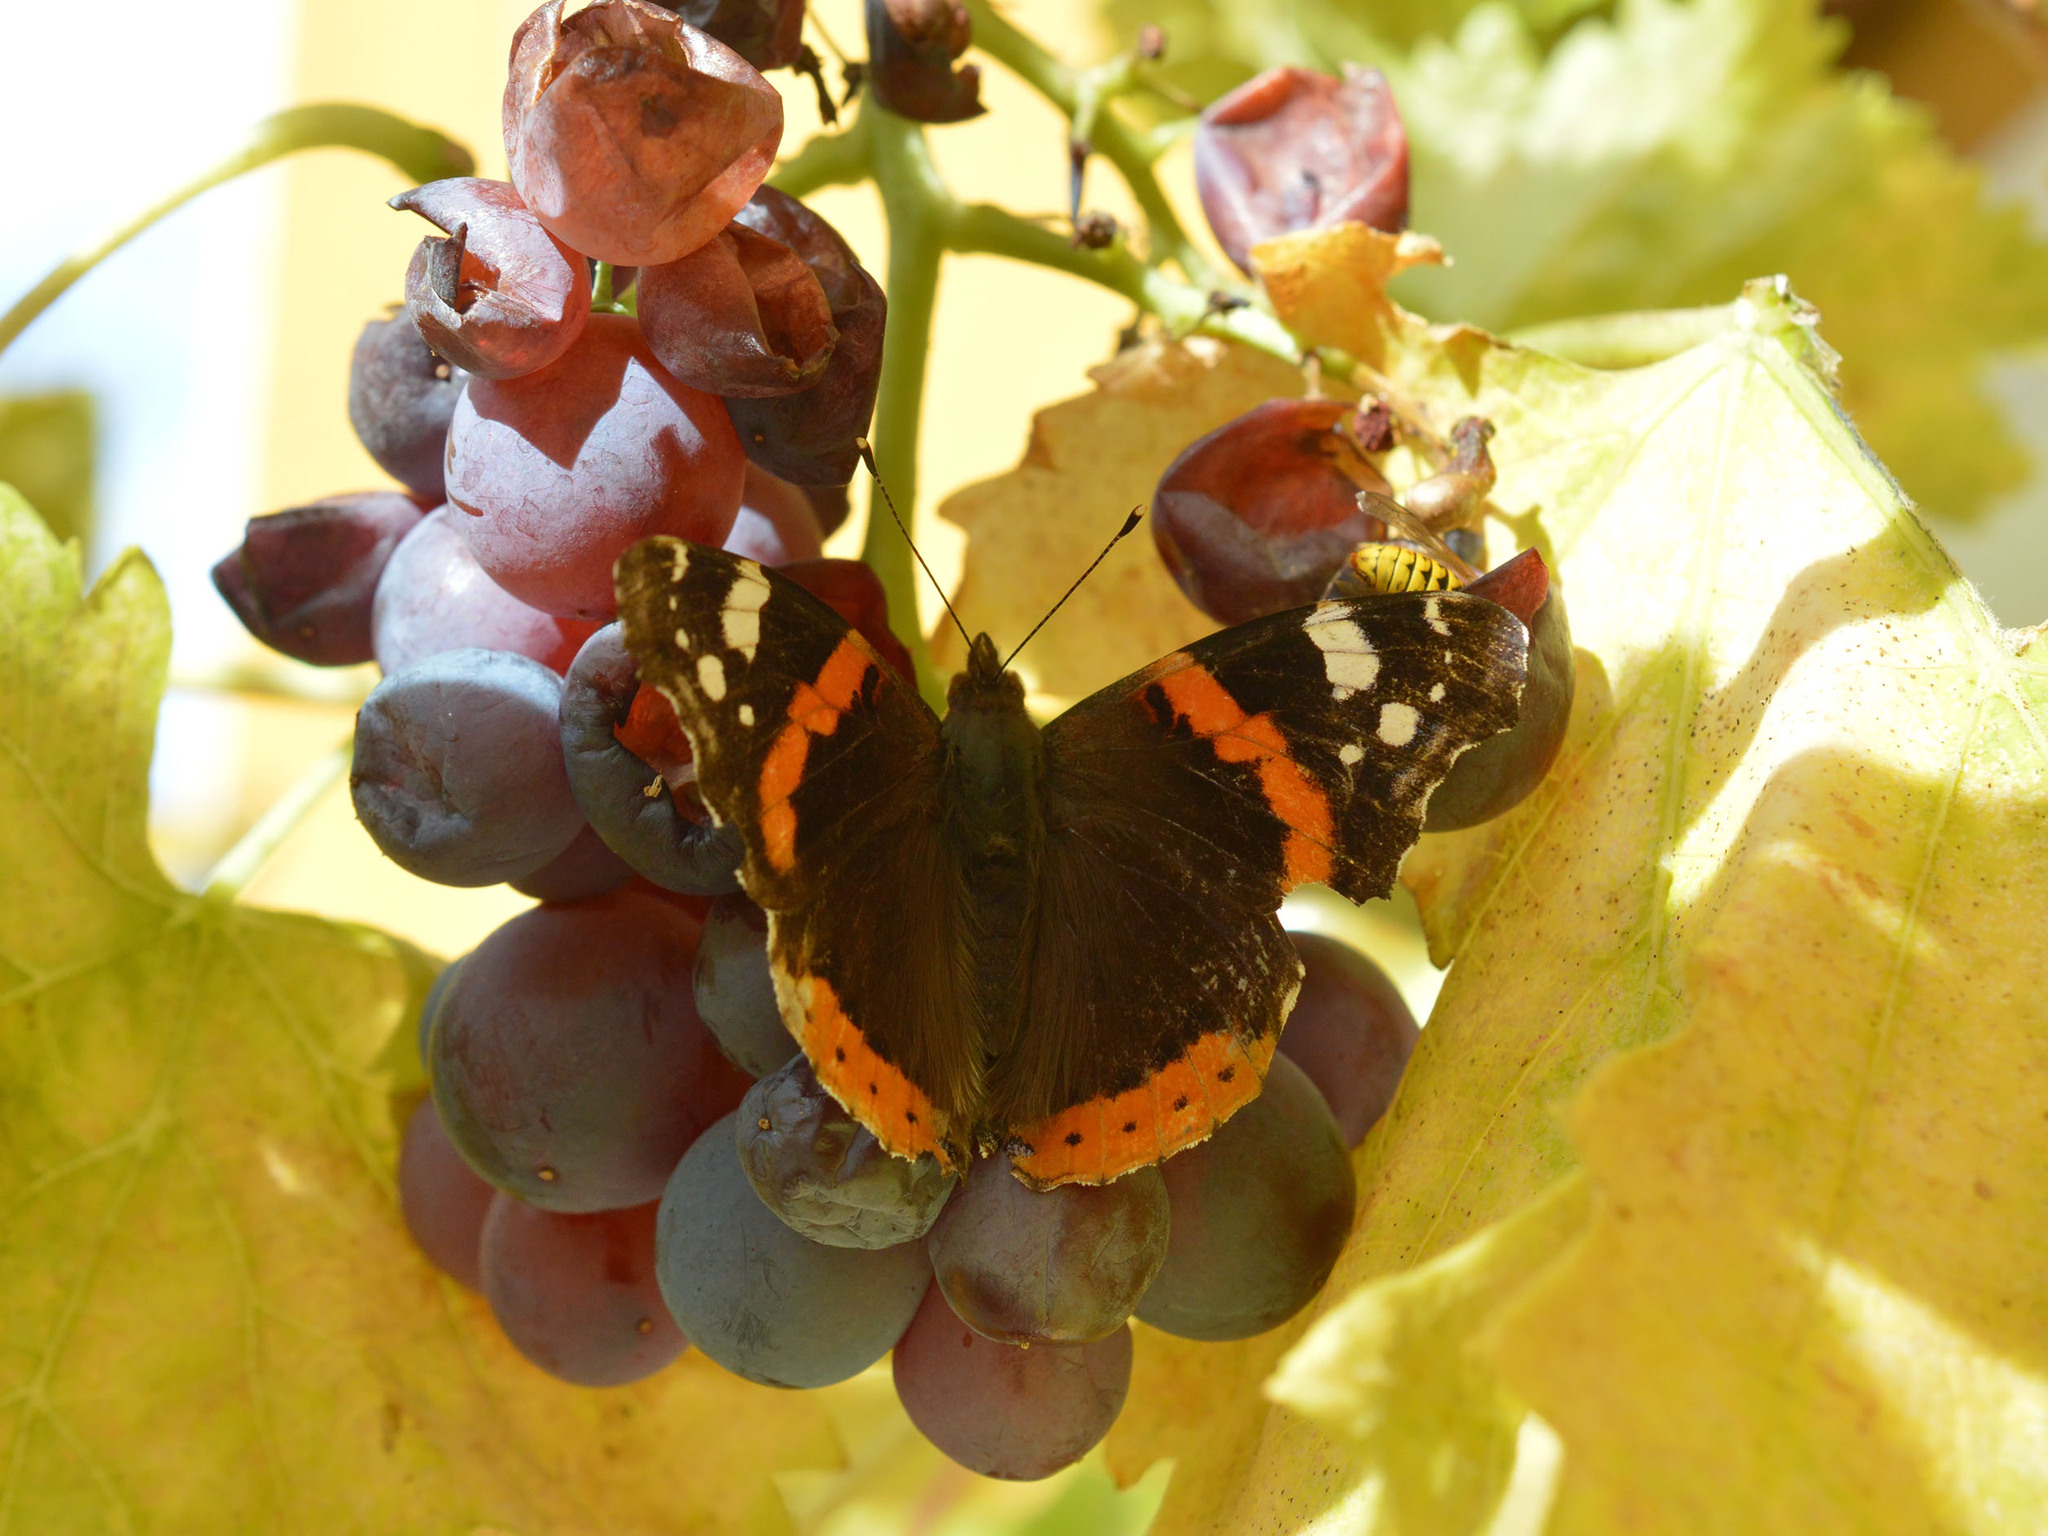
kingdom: Animalia
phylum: Arthropoda
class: Insecta
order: Lepidoptera
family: Nymphalidae
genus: Vanessa
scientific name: Vanessa atalanta
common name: Red admiral
